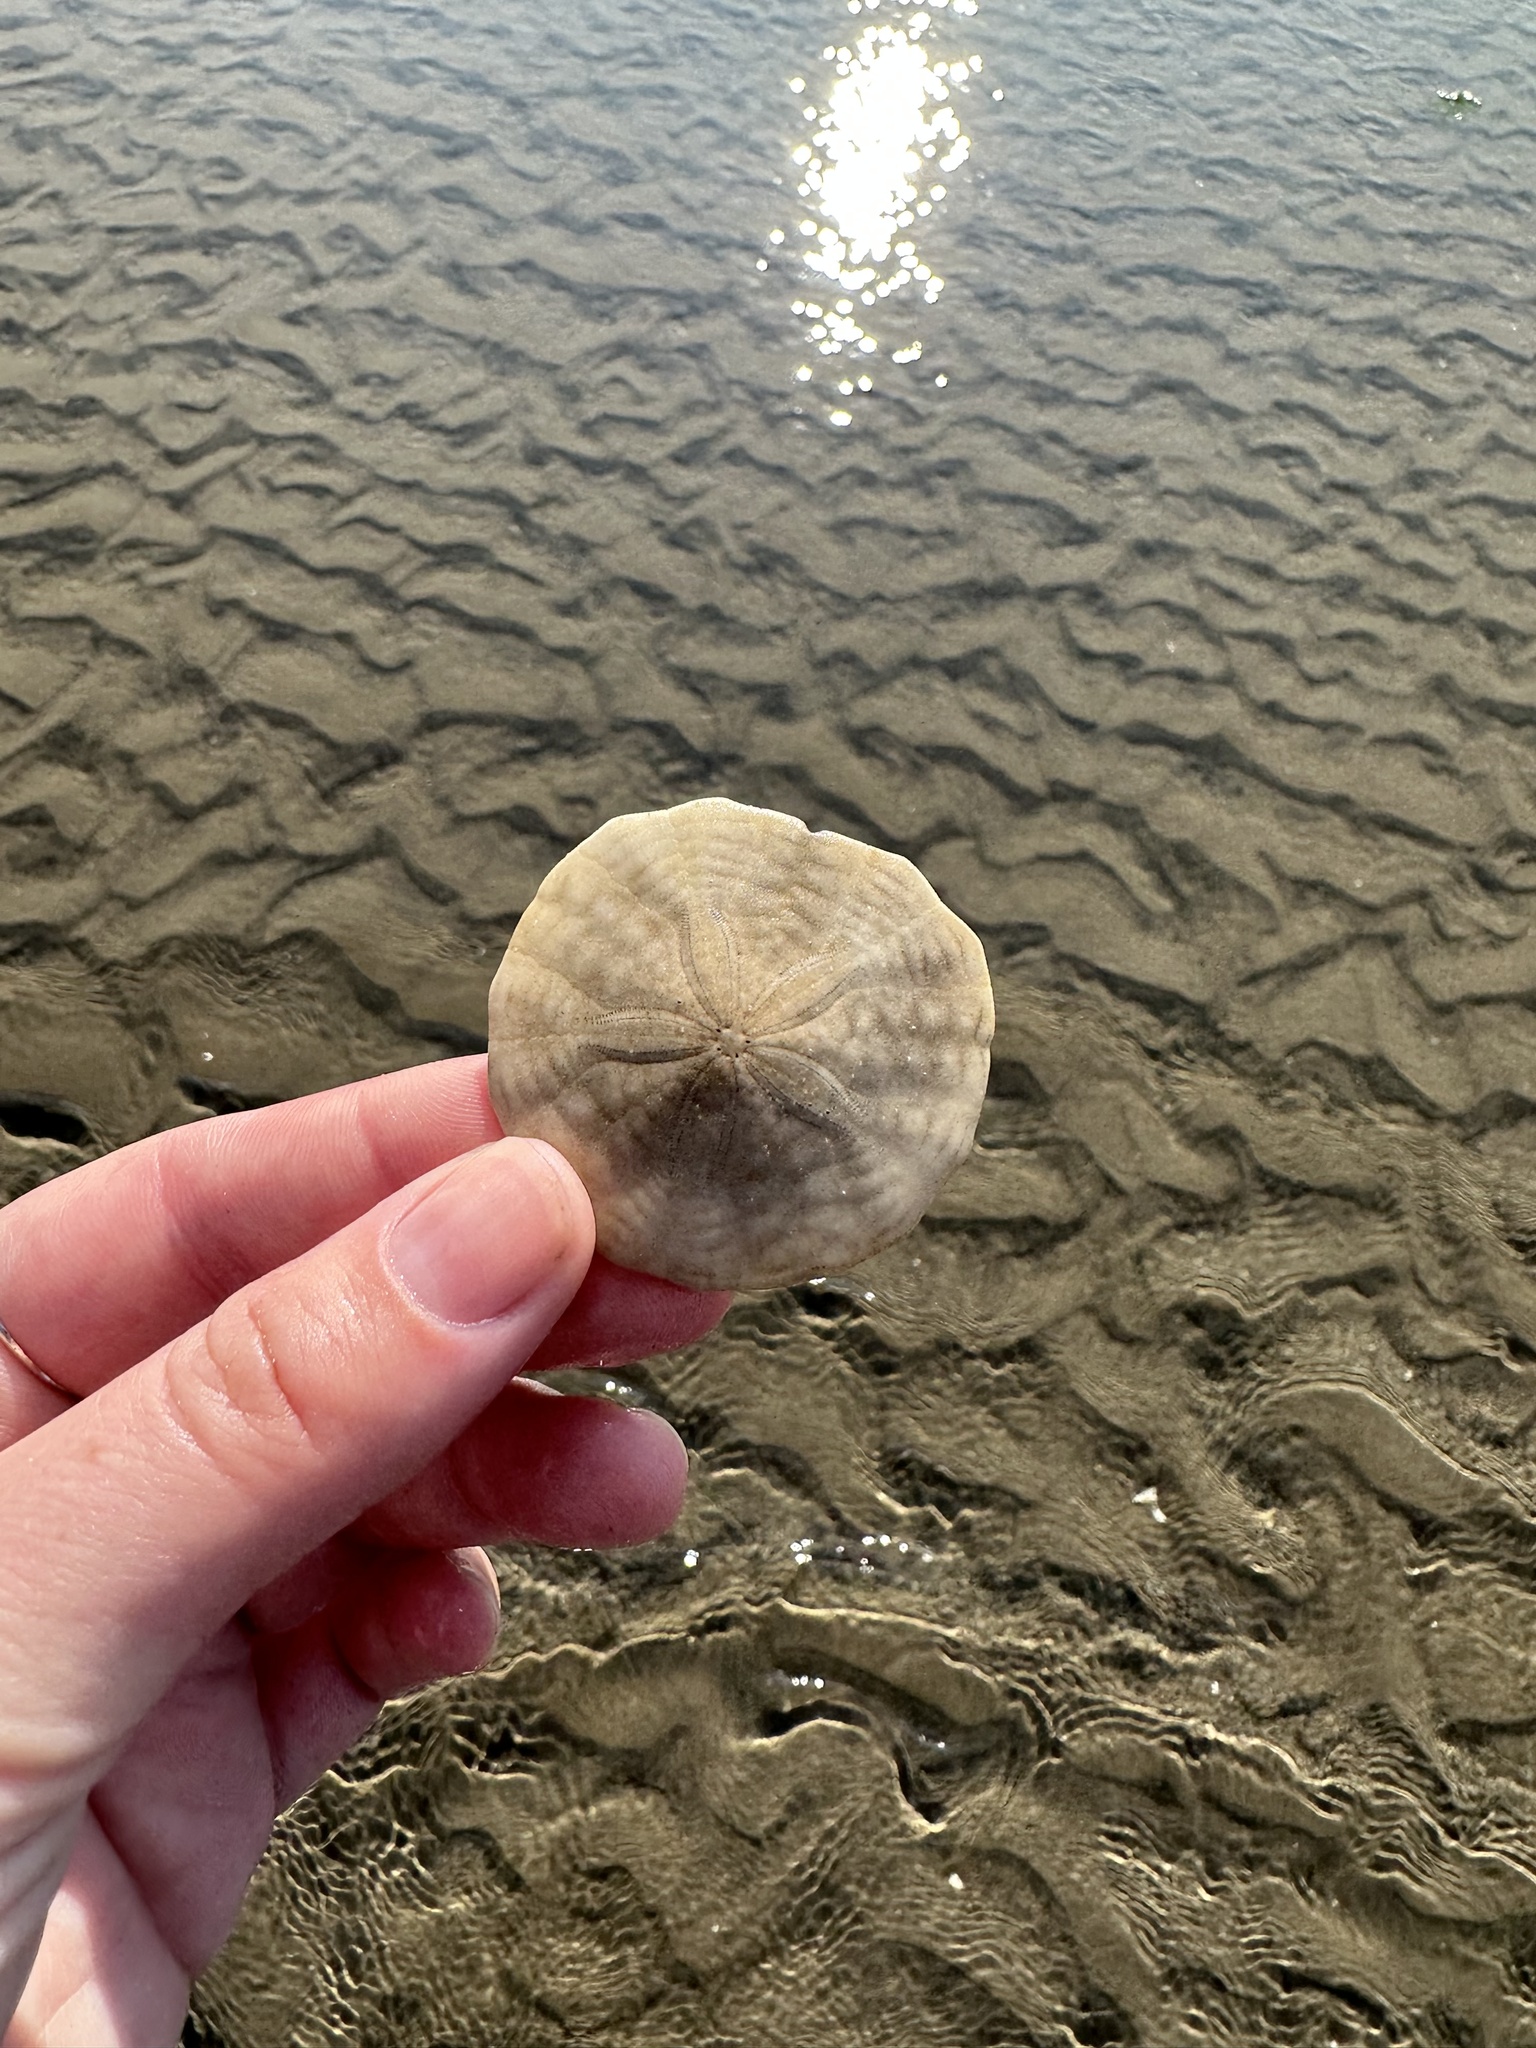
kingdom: Animalia
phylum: Echinodermata
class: Echinoidea
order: Echinolampadacea
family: Echinarachniidae
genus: Echinarachnius
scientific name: Echinarachnius parma
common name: Common sand dollar
